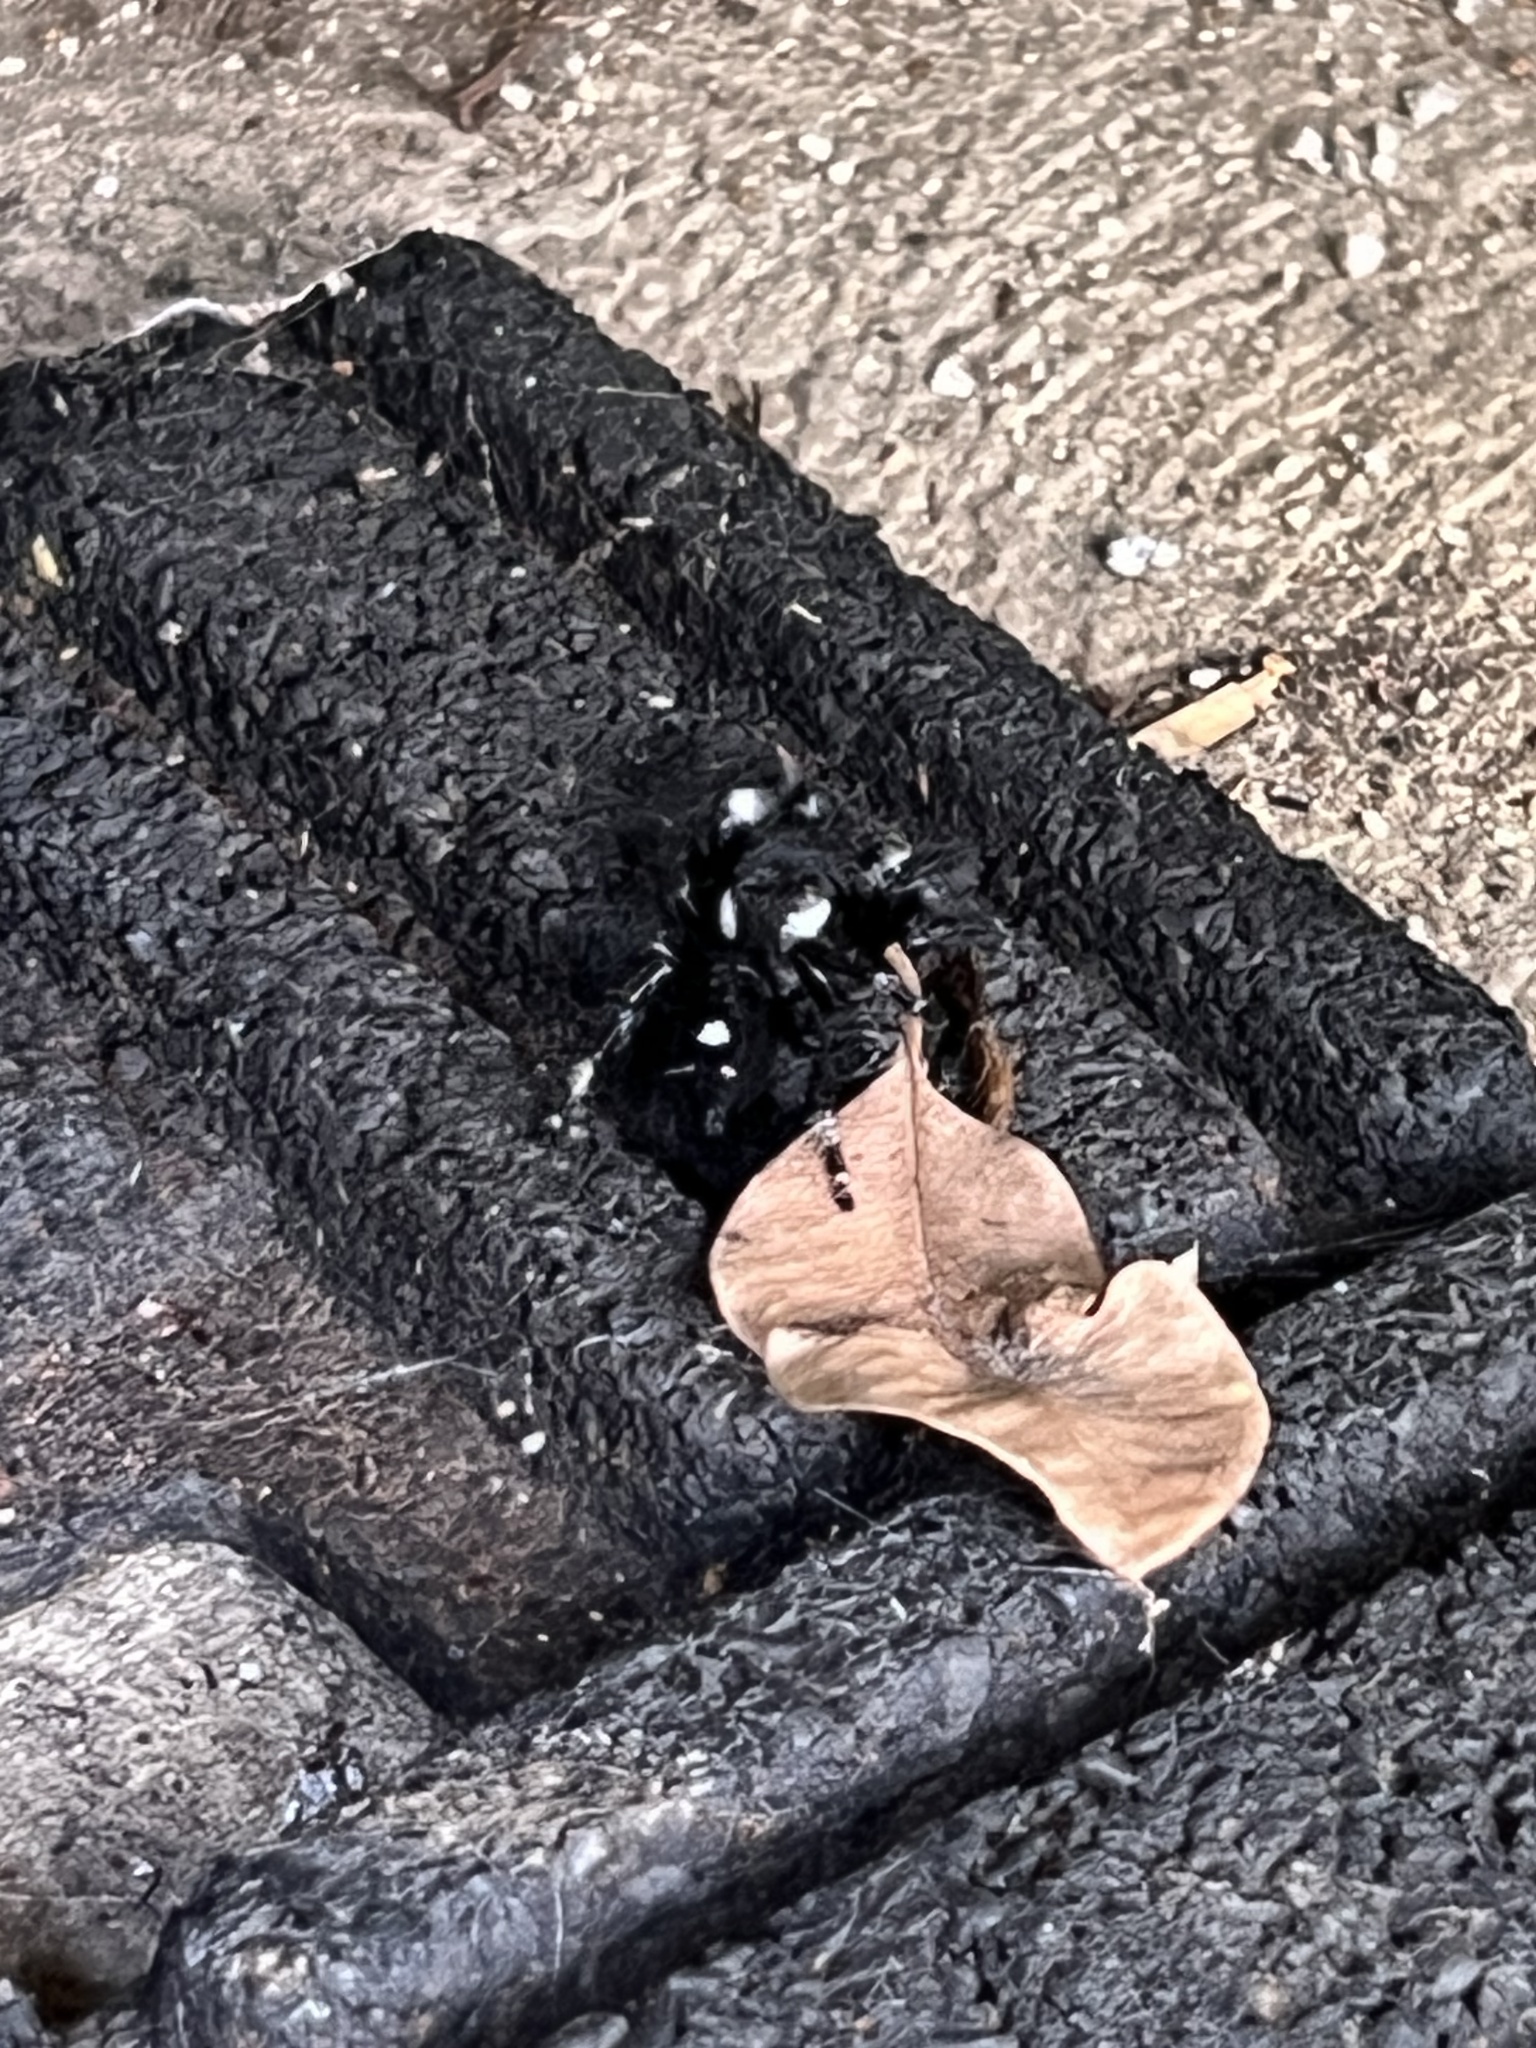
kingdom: Animalia
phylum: Arthropoda
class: Arachnida
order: Araneae
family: Salticidae
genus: Phidippus
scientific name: Phidippus audax
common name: Bold jumper
